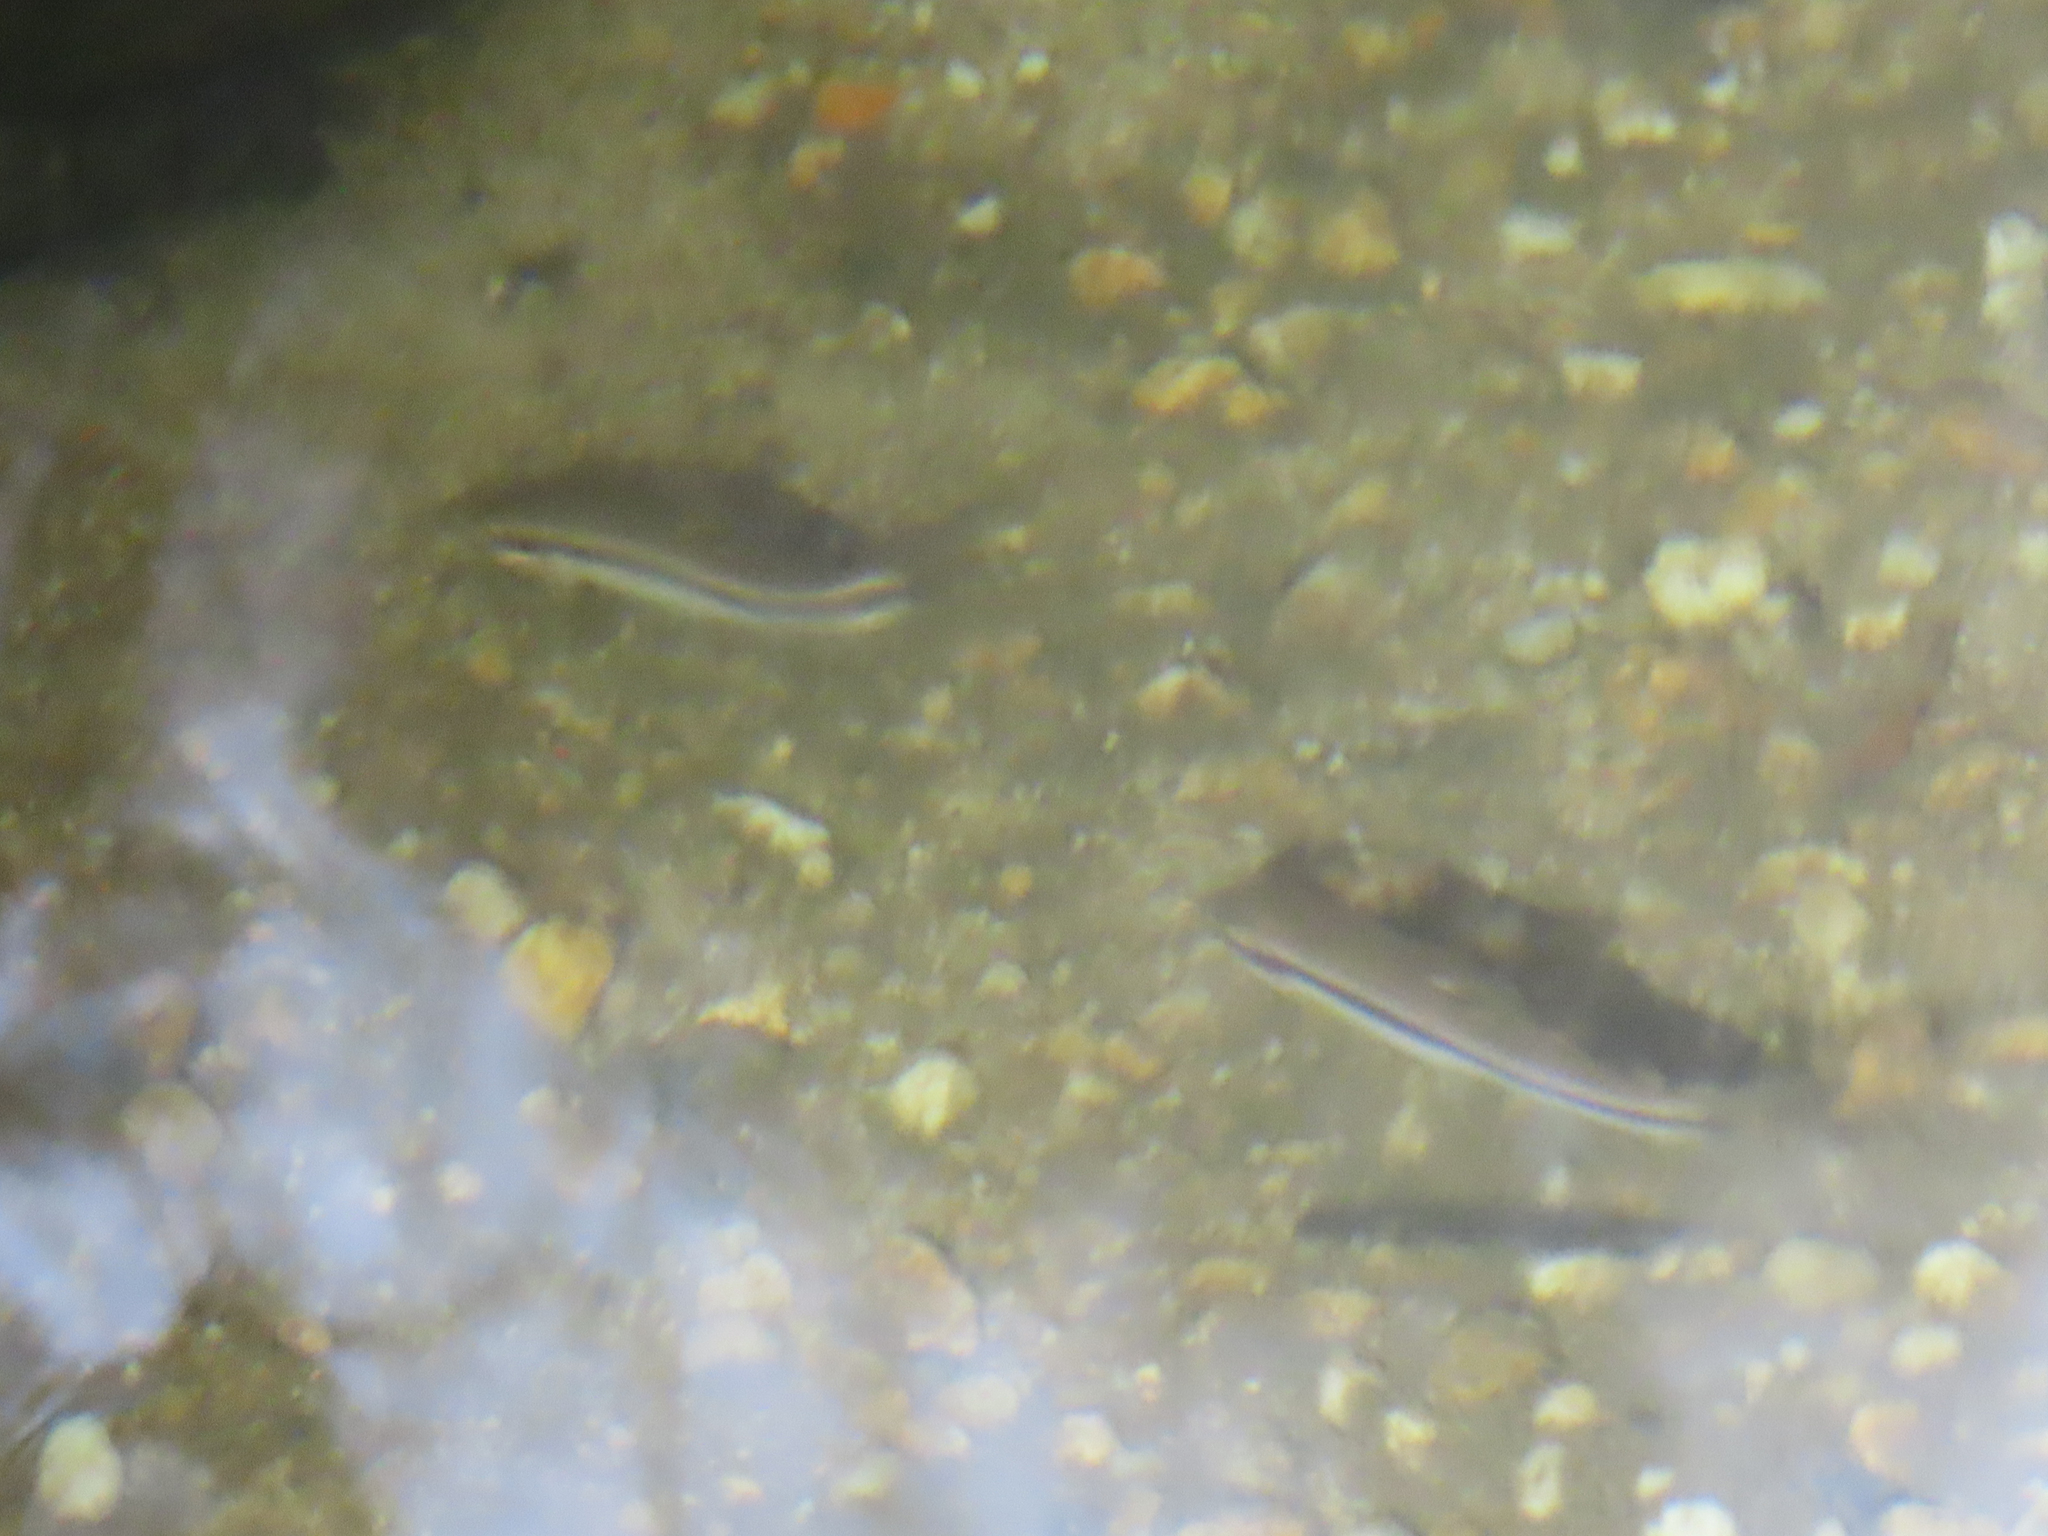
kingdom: Animalia
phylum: Chordata
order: Cypriniformes
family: Cyprinidae
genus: Rhinichthys
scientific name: Rhinichthys atratulus
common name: Eastern blacknose dace
